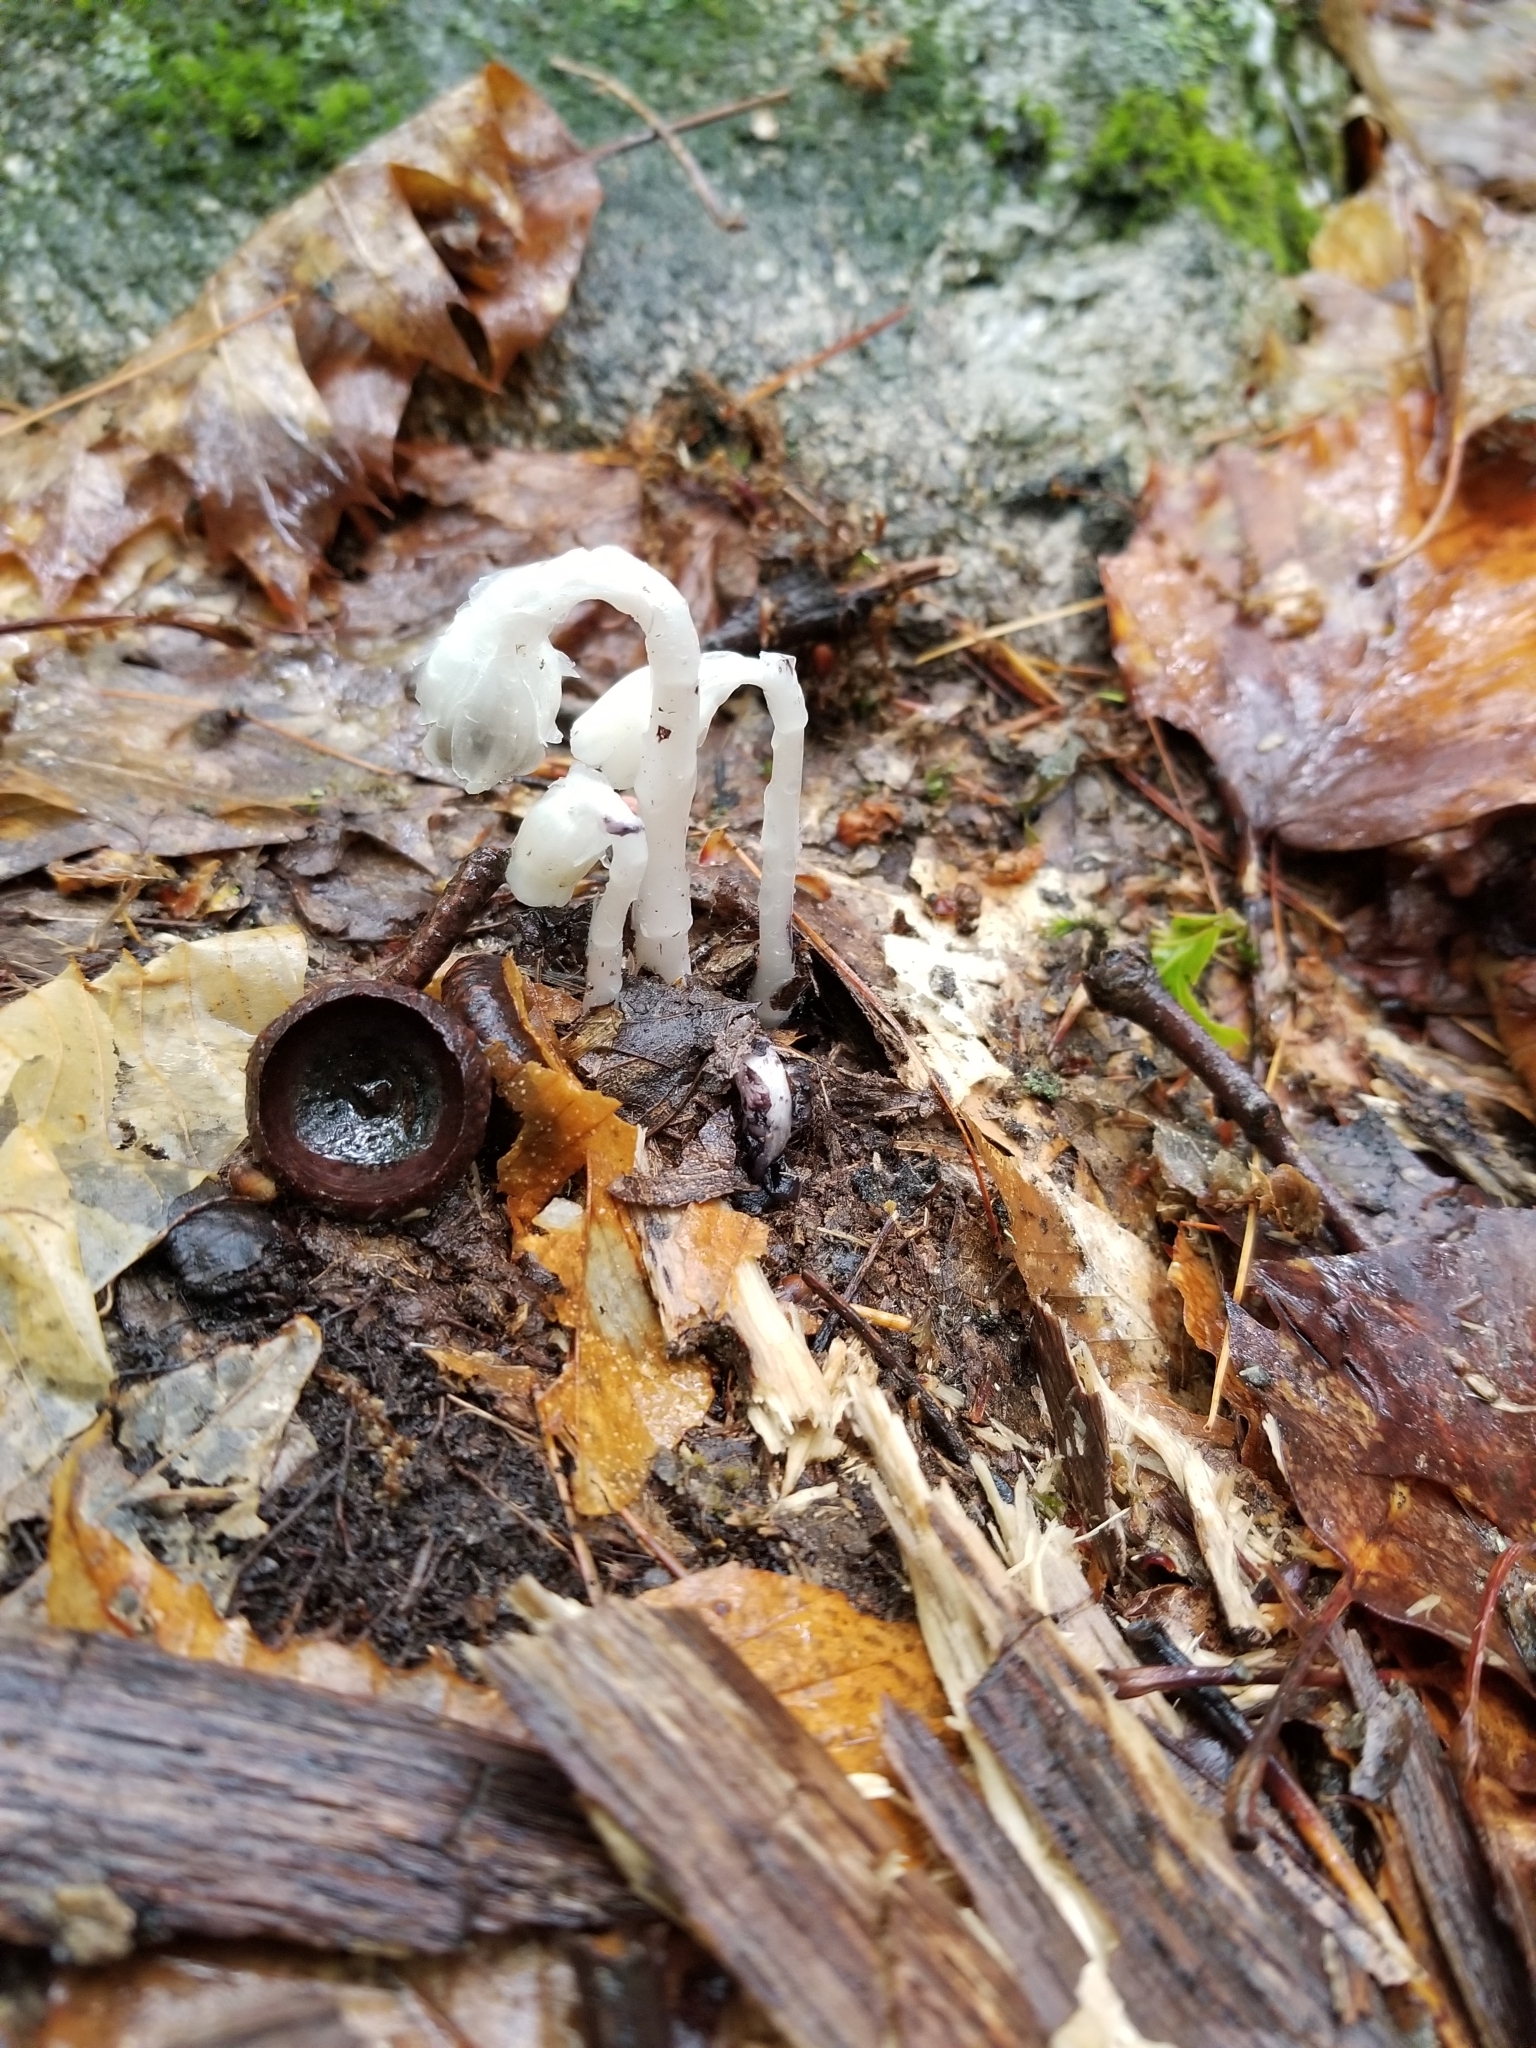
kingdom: Plantae
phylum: Tracheophyta
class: Magnoliopsida
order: Ericales
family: Ericaceae
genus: Monotropa
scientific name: Monotropa uniflora
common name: Convulsion root
